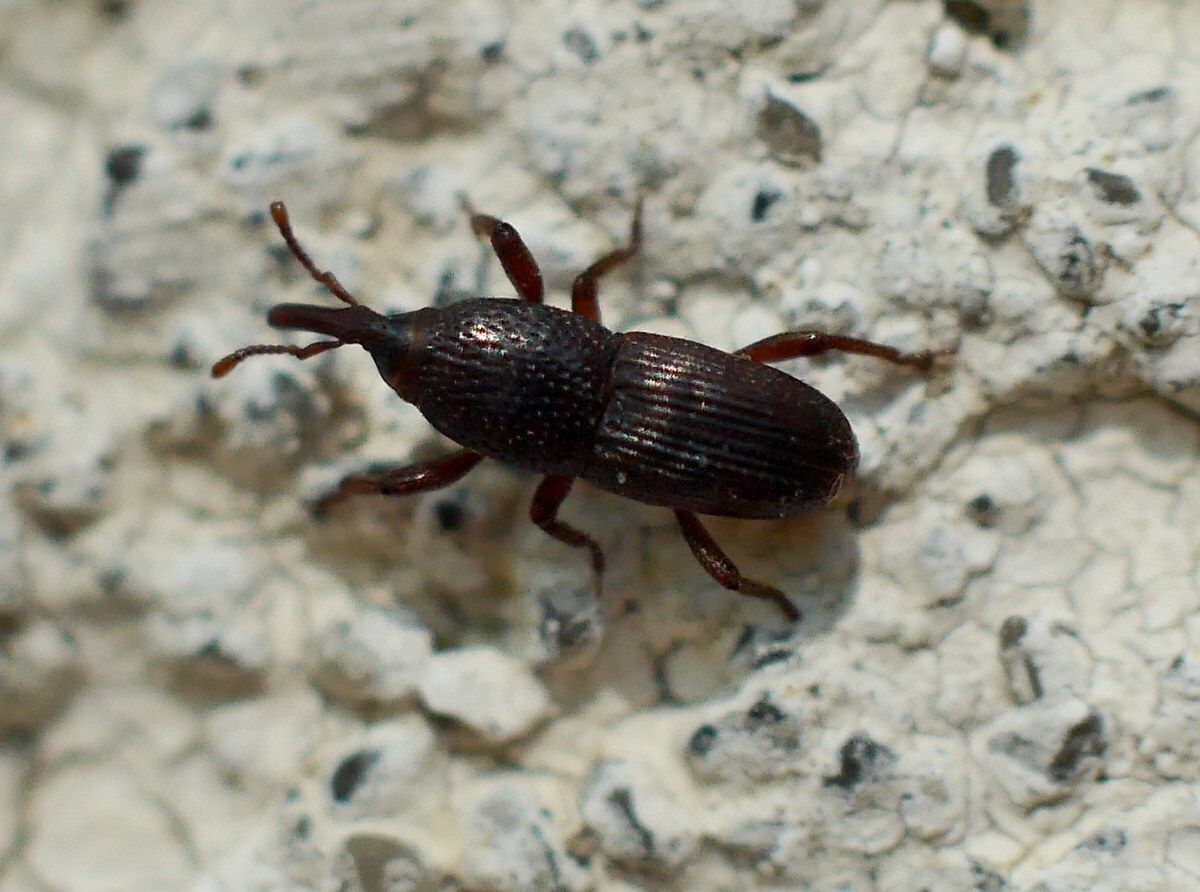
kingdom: Animalia
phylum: Arthropoda
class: Insecta
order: Coleoptera
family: Dryophthoridae
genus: Sitophilus
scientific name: Sitophilus granarius
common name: Granary weevil
